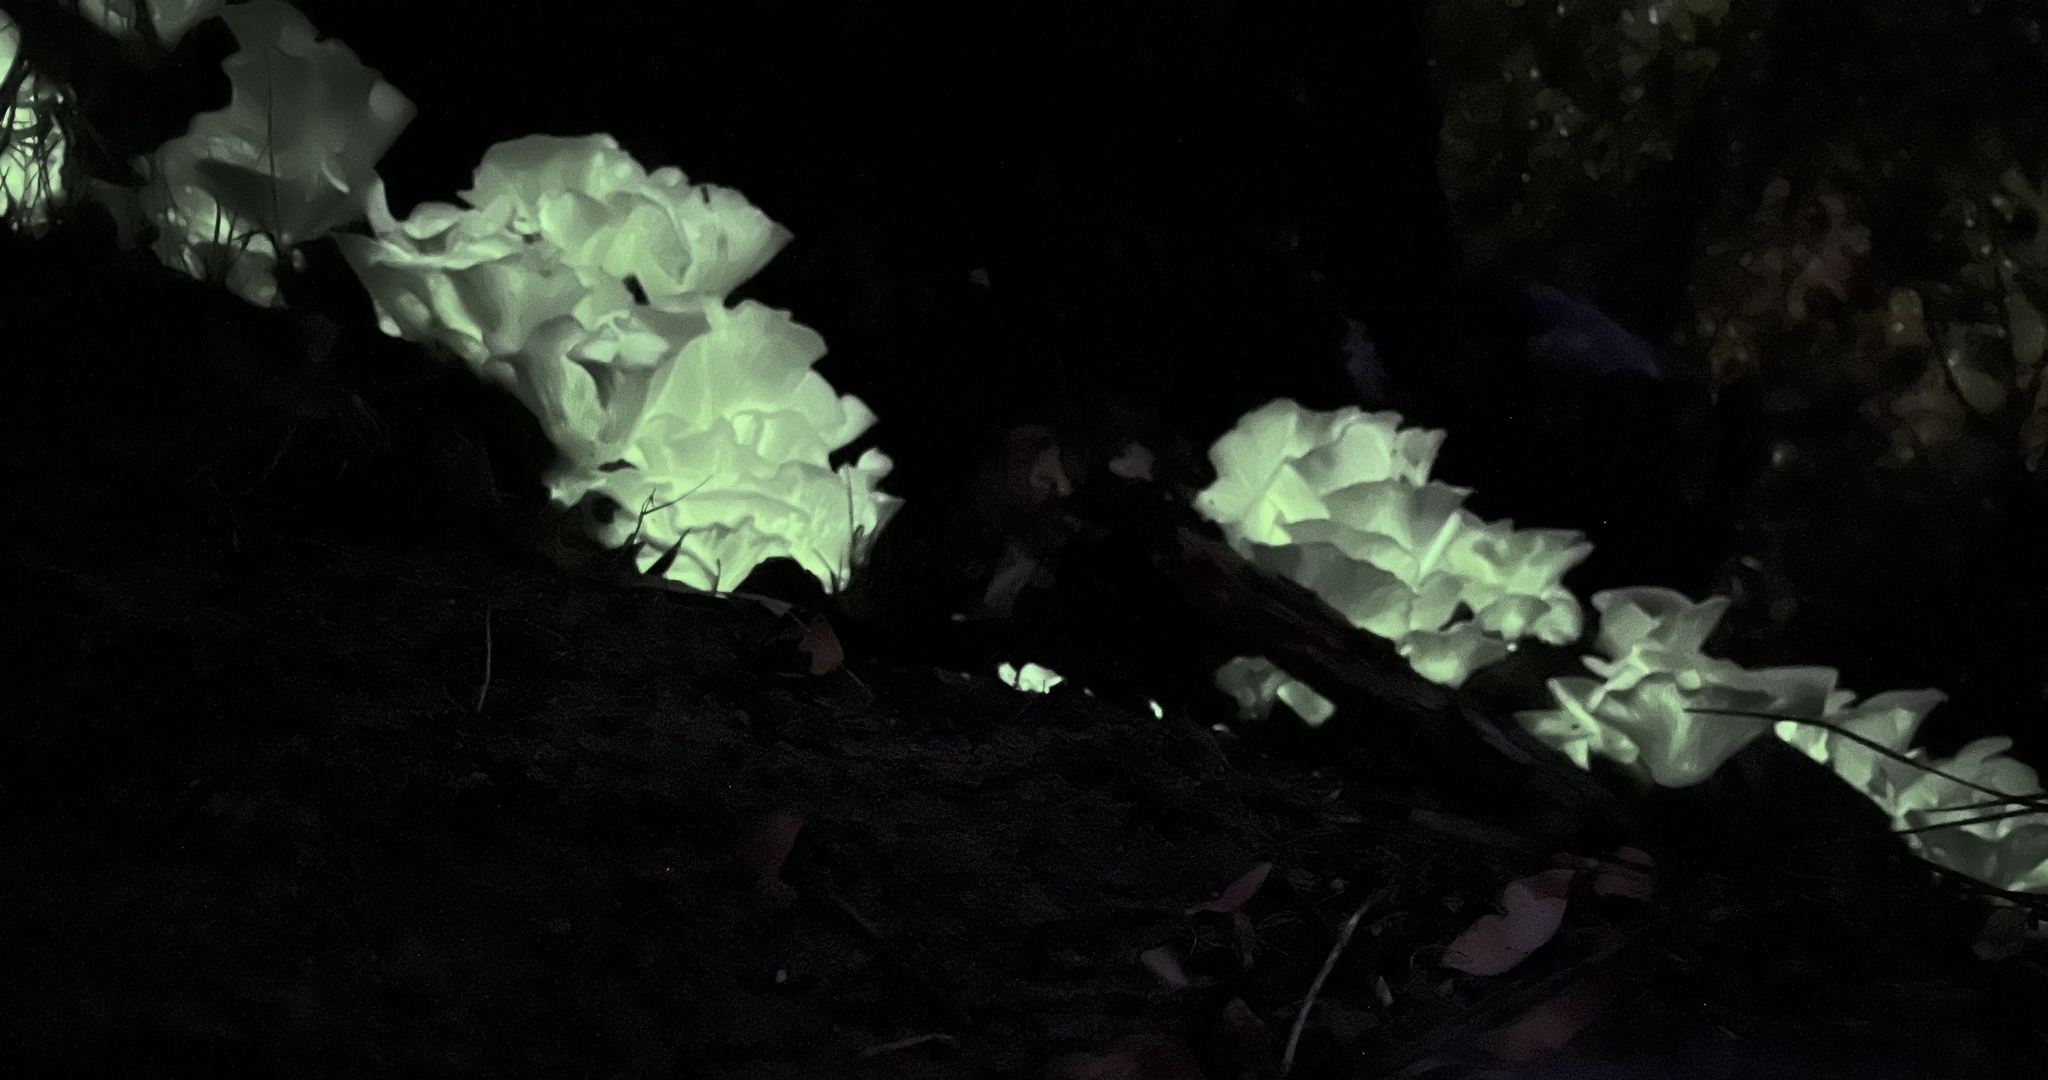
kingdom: Fungi
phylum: Basidiomycota
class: Agaricomycetes
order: Agaricales
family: Omphalotaceae
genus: Omphalotus
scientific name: Omphalotus nidiformis
